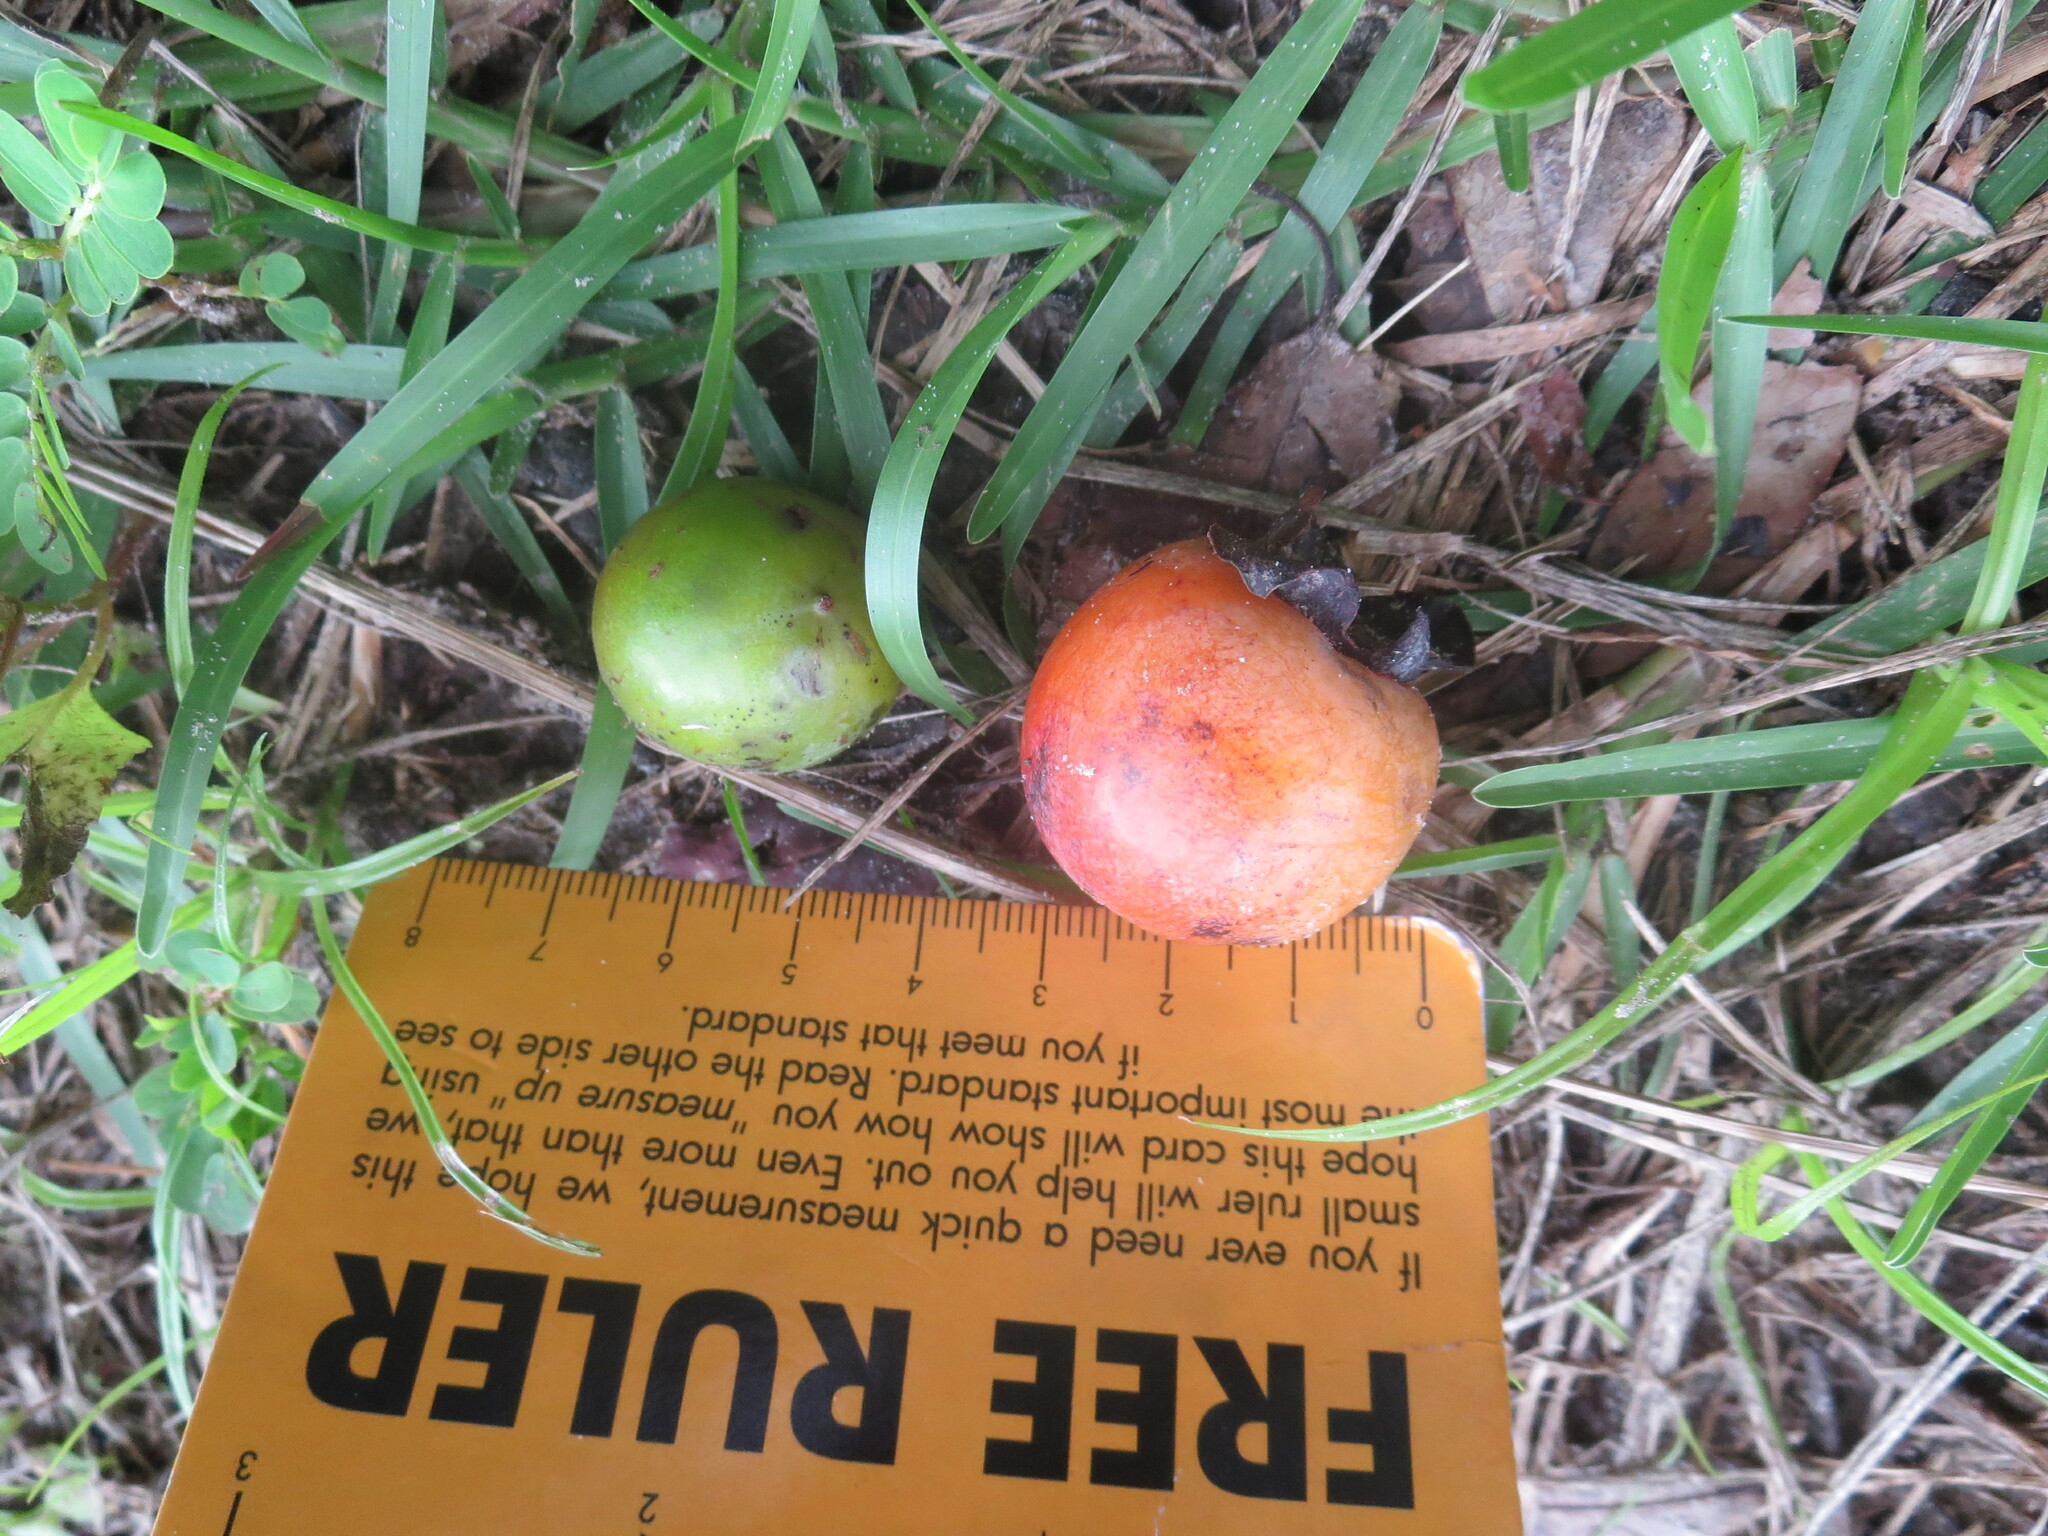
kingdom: Plantae
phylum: Tracheophyta
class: Magnoliopsida
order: Ericales
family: Ebenaceae
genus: Diospyros
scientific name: Diospyros virginiana
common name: Persimmon
